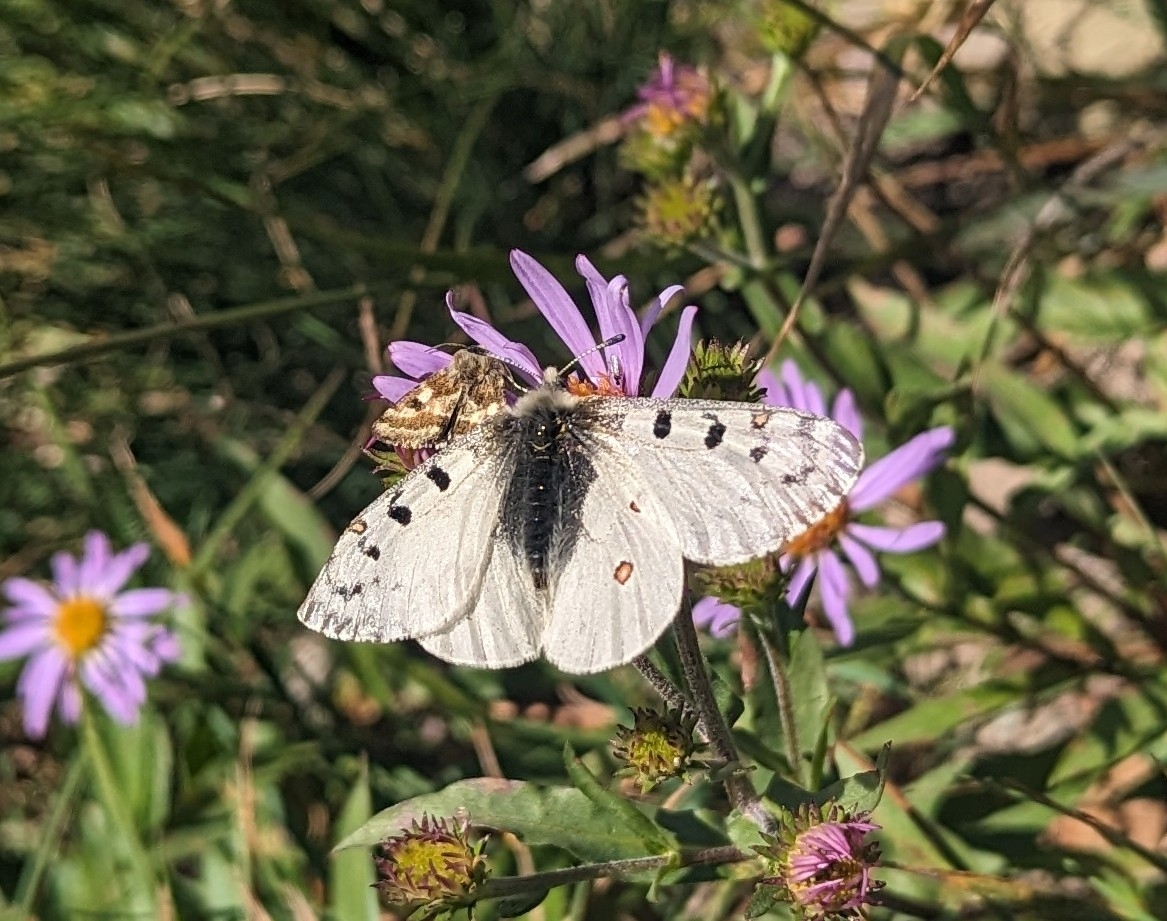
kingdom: Animalia
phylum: Arthropoda
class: Insecta
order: Lepidoptera
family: Papilionidae
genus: Parnassius
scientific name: Parnassius smintheus
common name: Mountain parnassian
